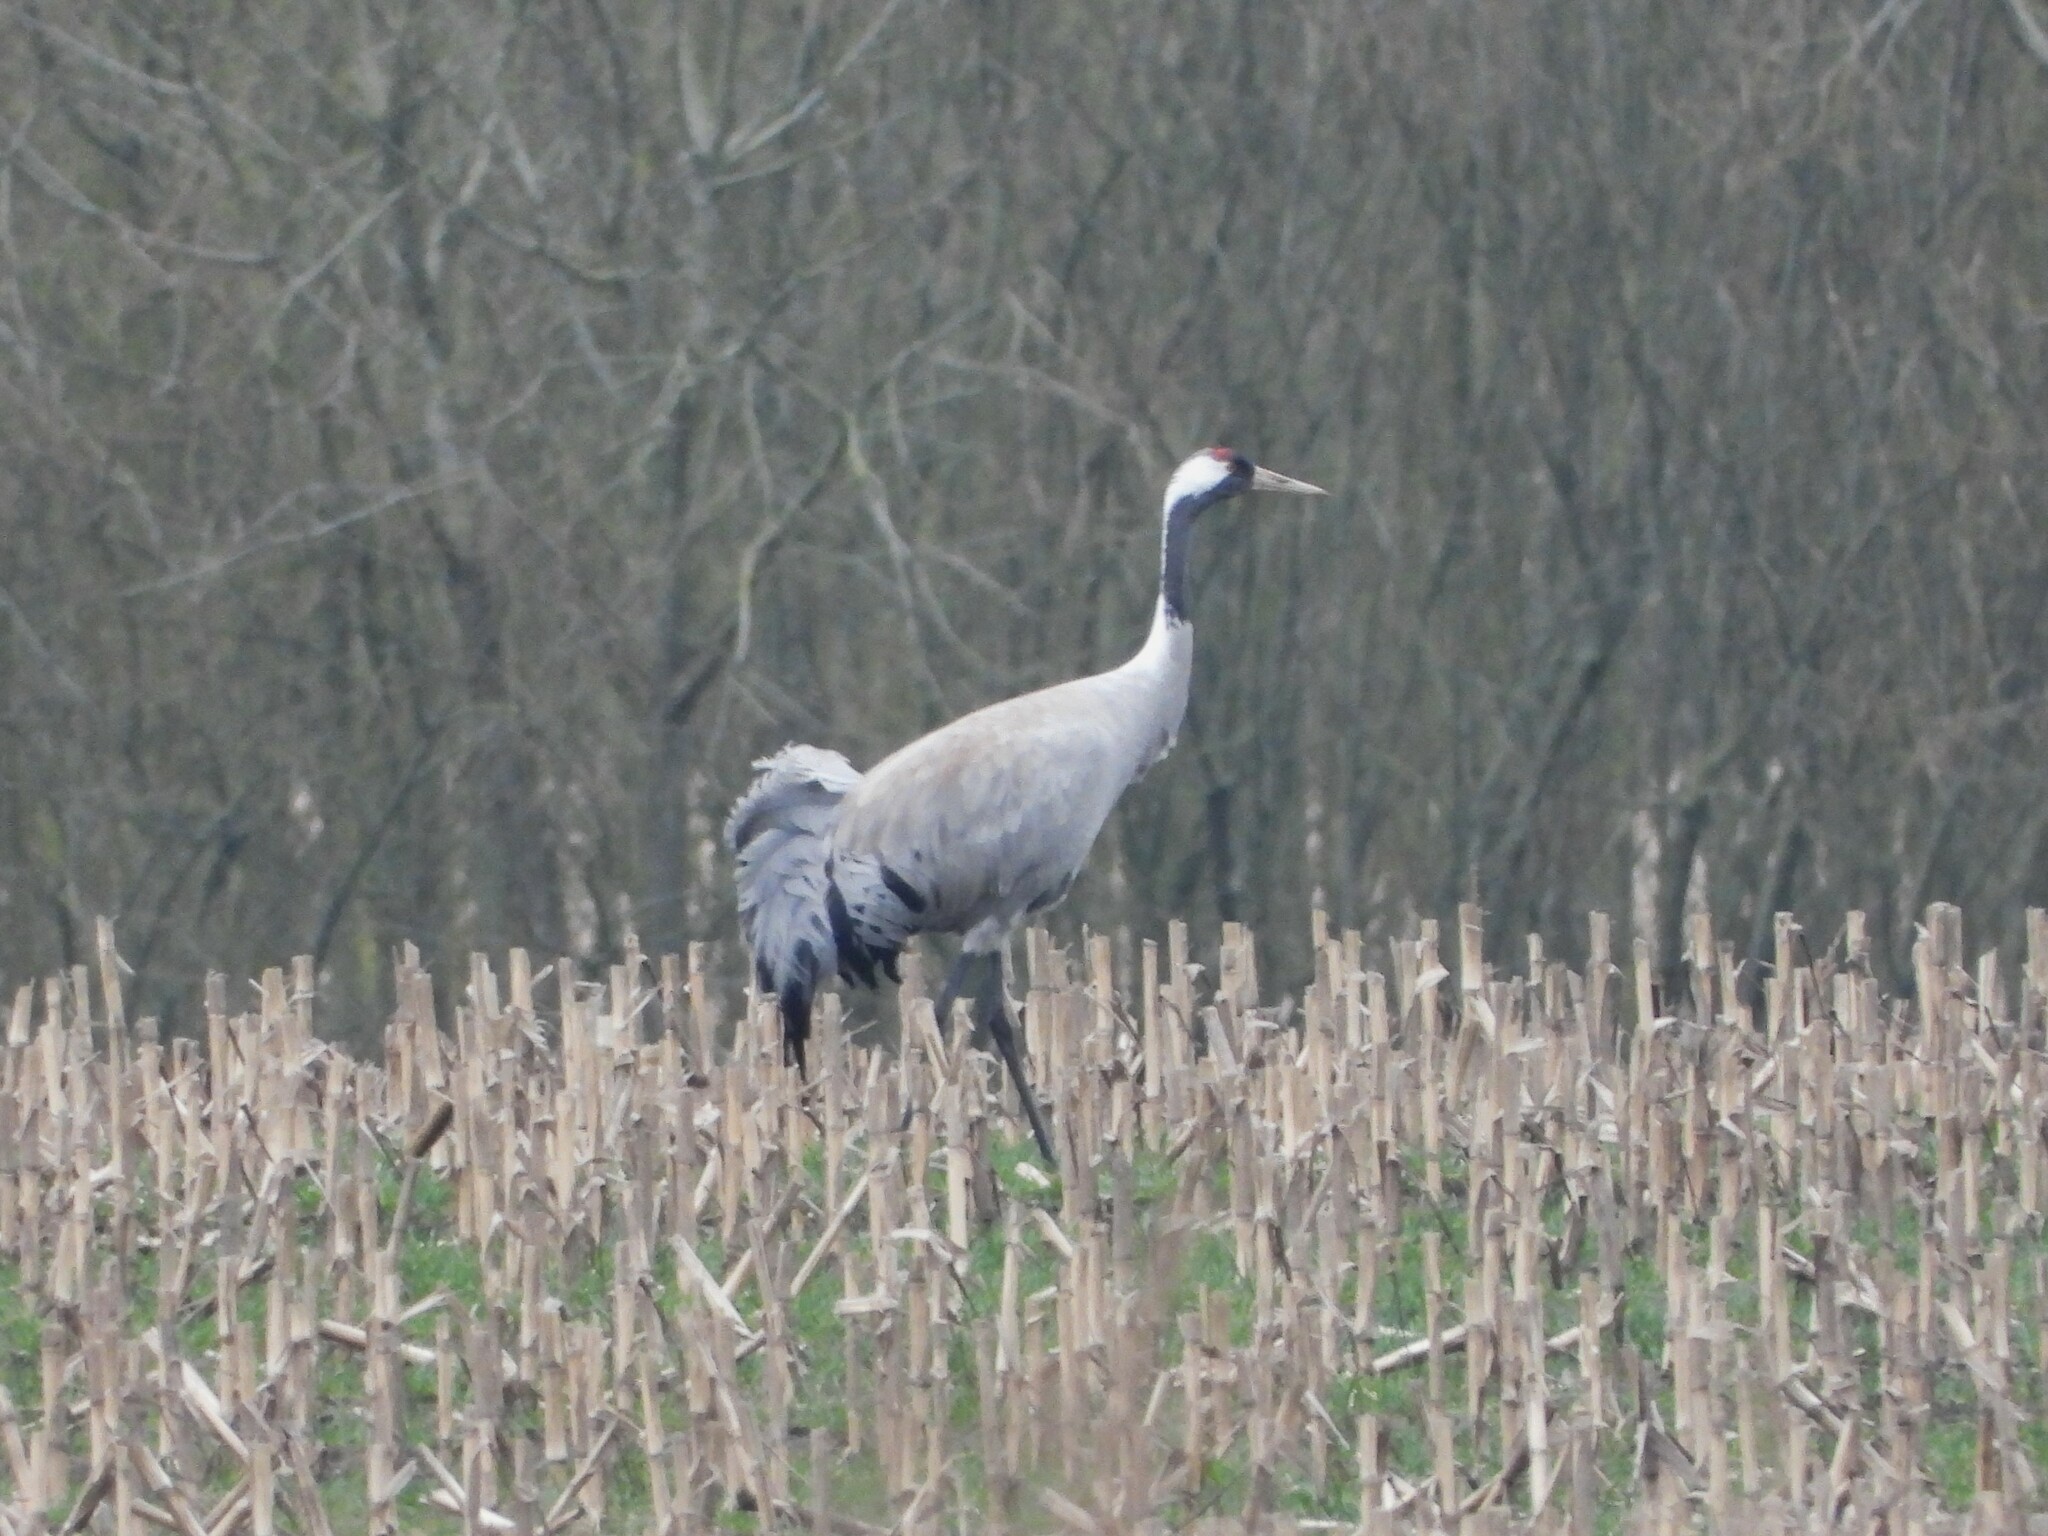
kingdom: Animalia
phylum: Chordata
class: Aves
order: Gruiformes
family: Gruidae
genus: Grus
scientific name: Grus grus
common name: Common crane
